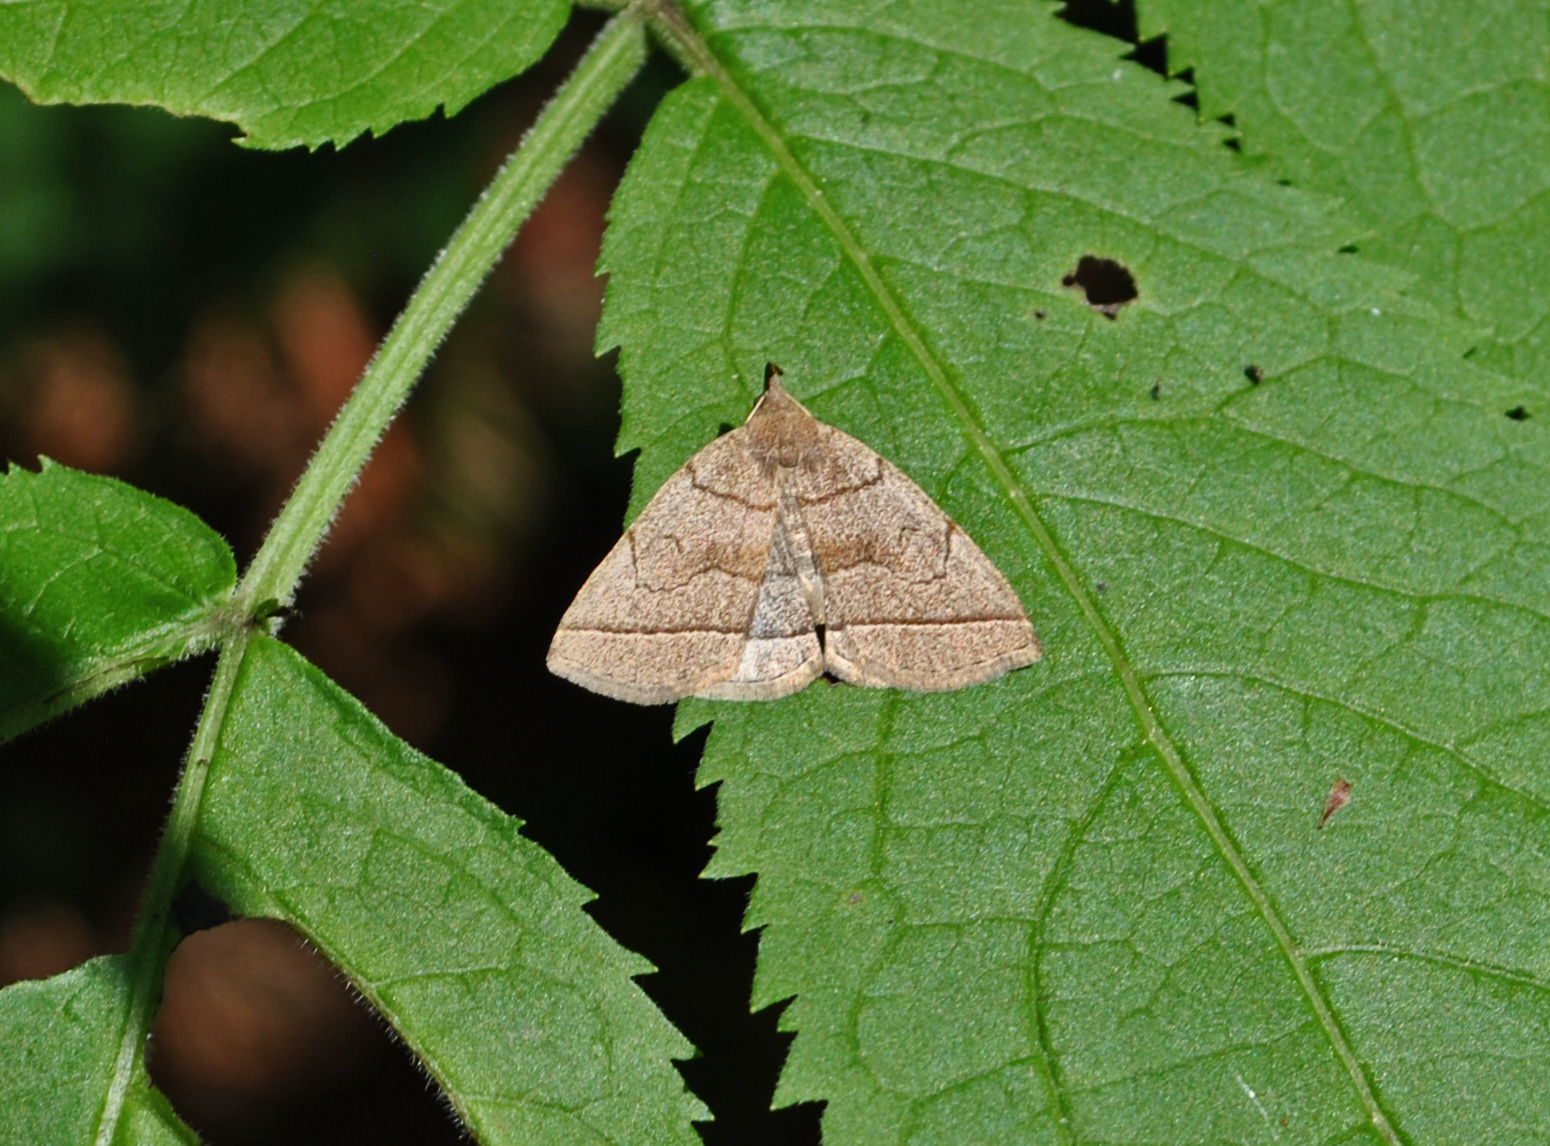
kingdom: Animalia
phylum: Arthropoda
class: Insecta
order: Lepidoptera
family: Erebidae
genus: Zanclognatha
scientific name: Zanclognatha cruralis
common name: Early fan-foot
